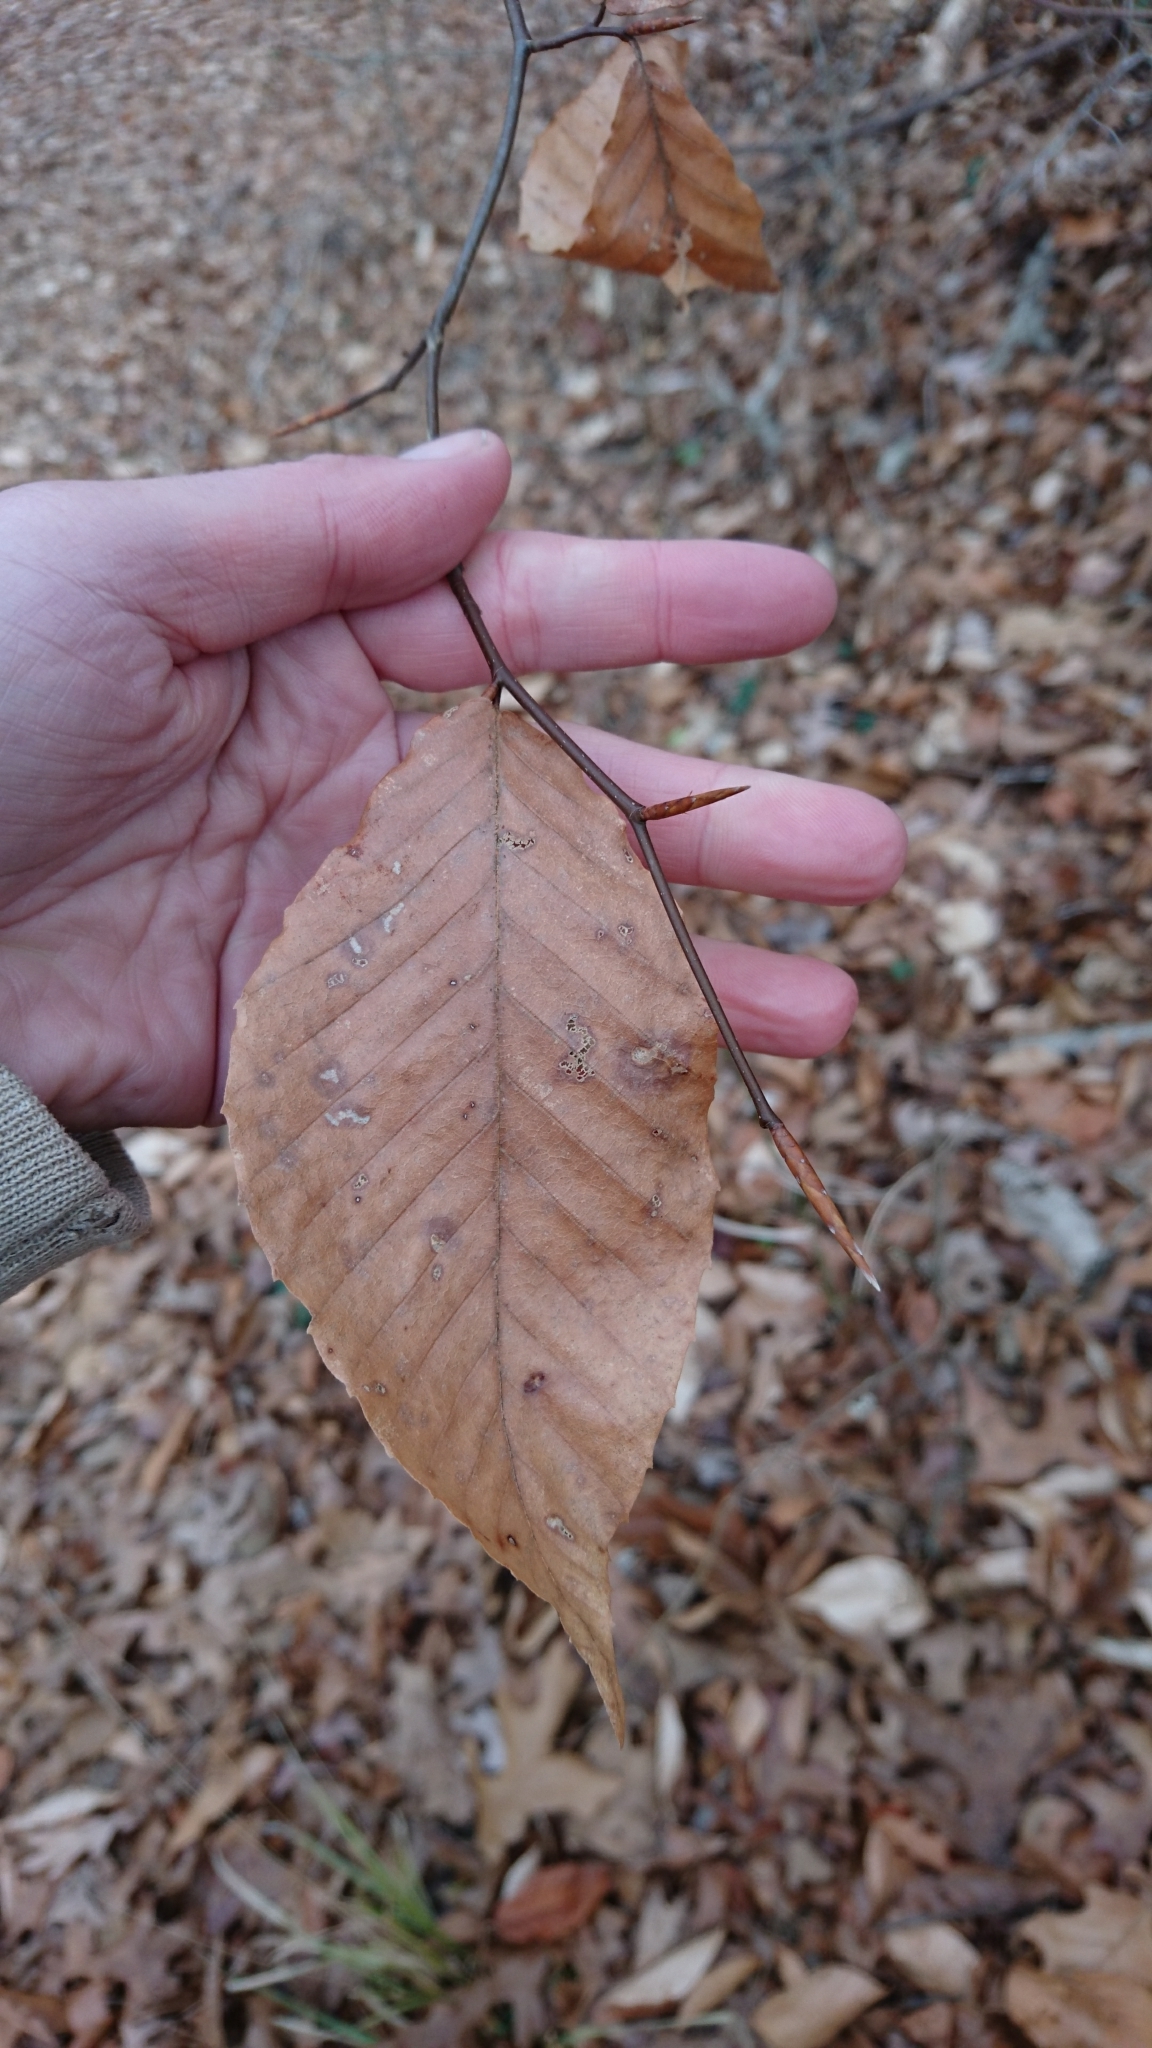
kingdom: Plantae
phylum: Tracheophyta
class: Magnoliopsida
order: Fagales
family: Fagaceae
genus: Fagus
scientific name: Fagus grandifolia
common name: American beech
